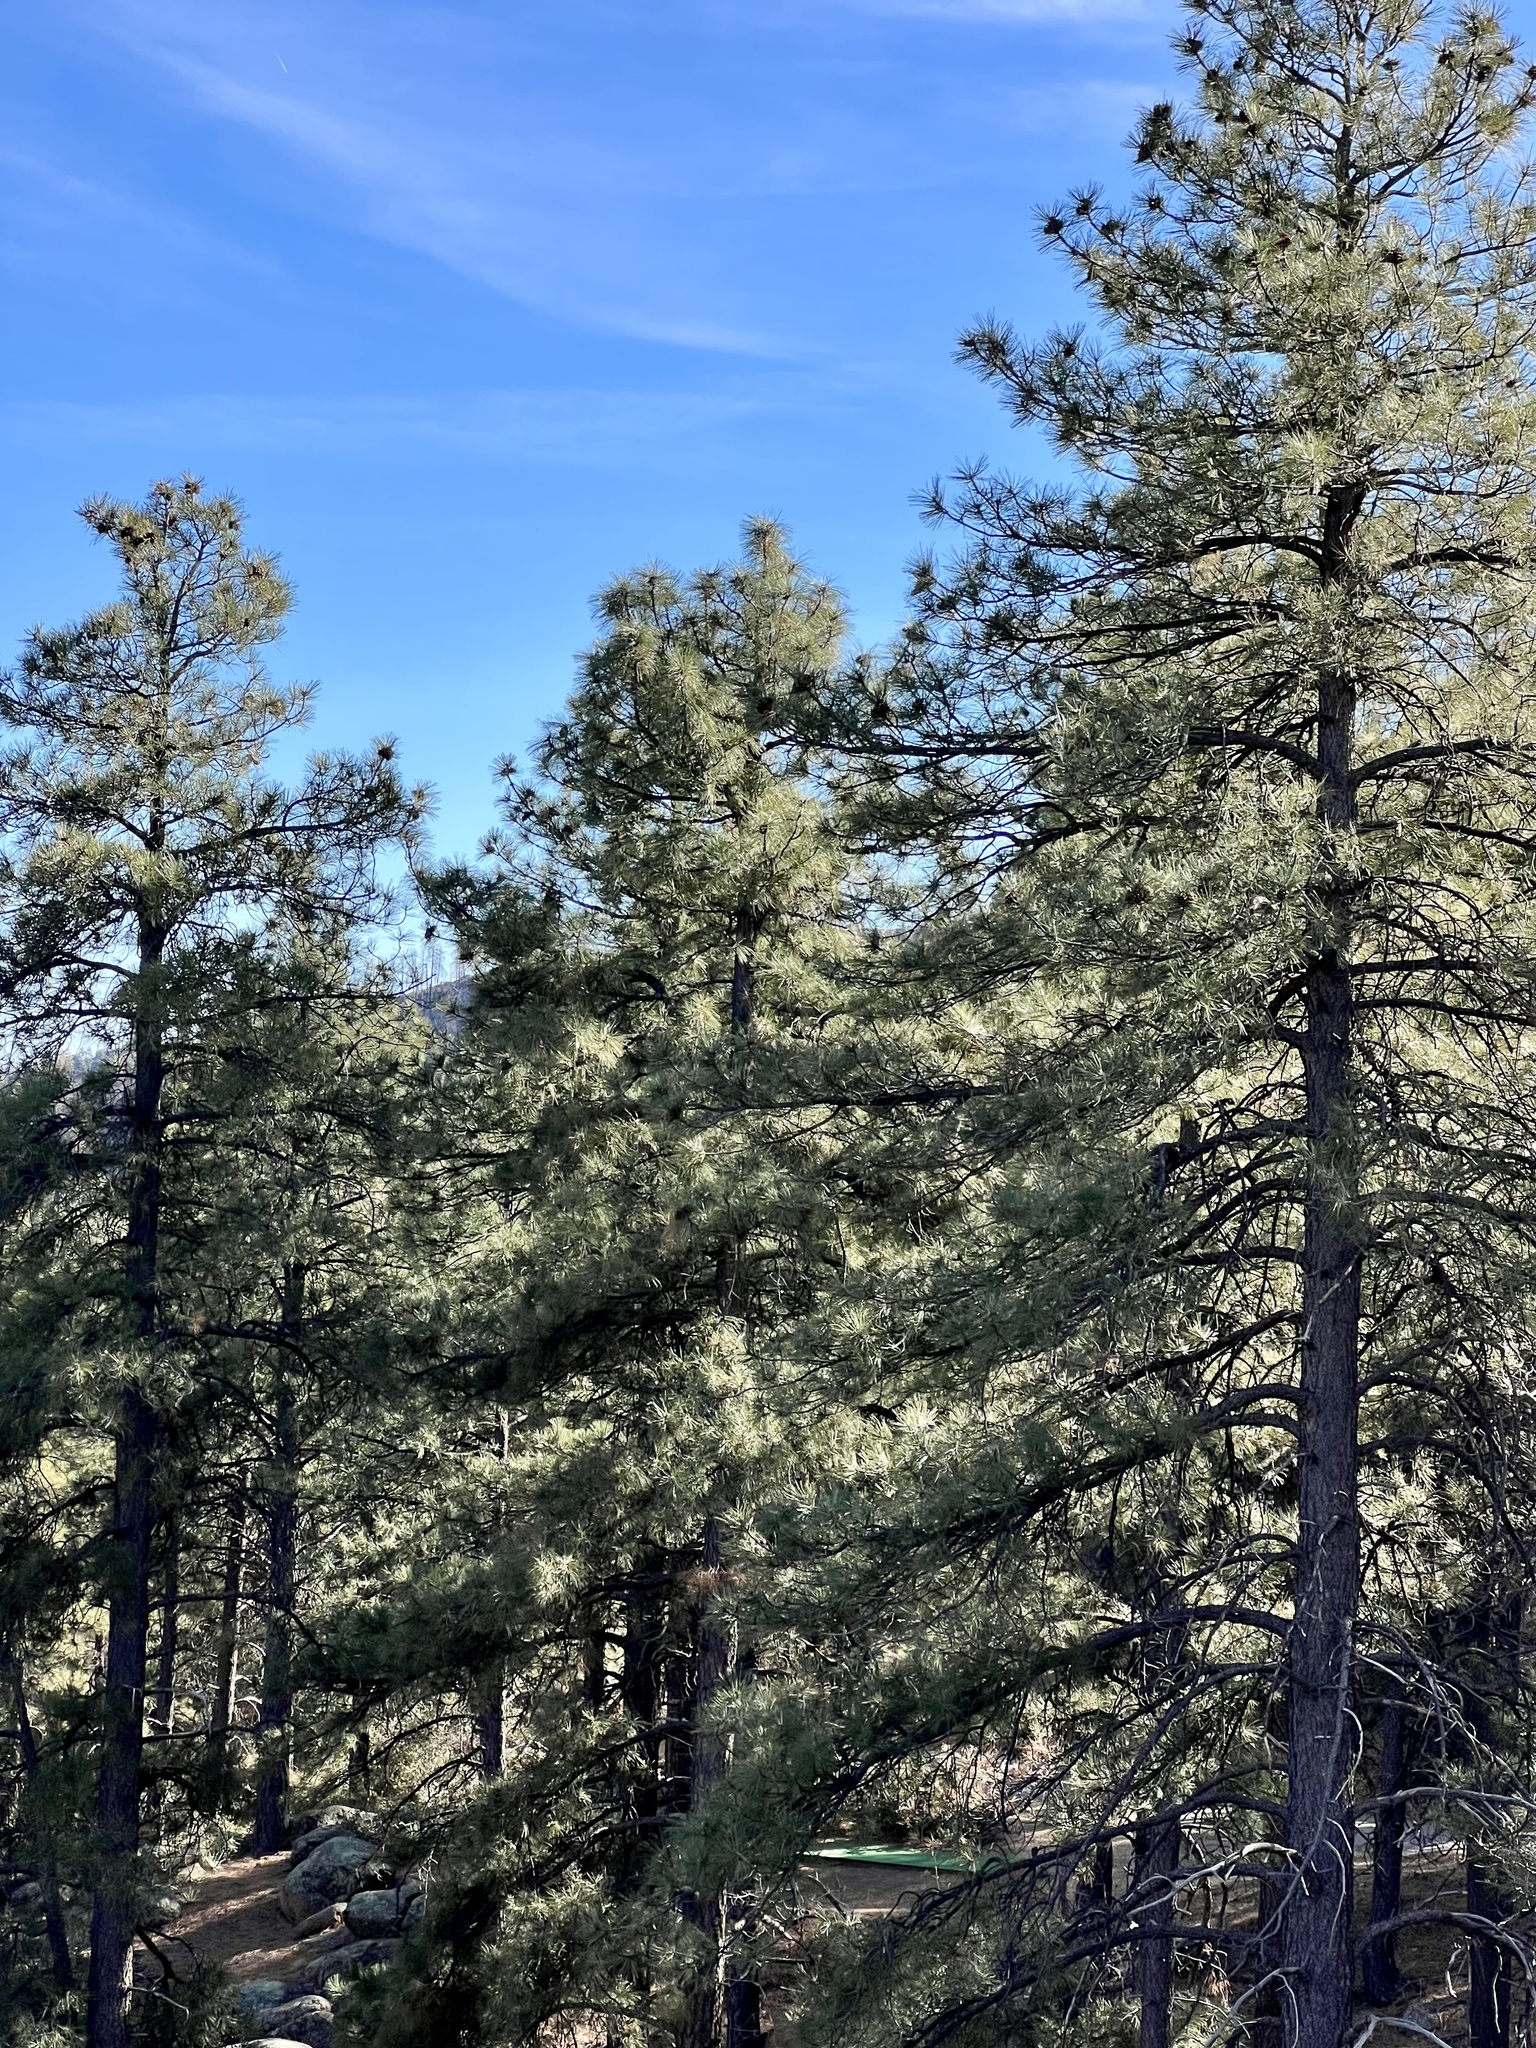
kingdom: Plantae
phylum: Tracheophyta
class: Pinopsida
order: Pinales
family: Pinaceae
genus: Pinus
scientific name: Pinus ponderosa
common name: Western yellow-pine
